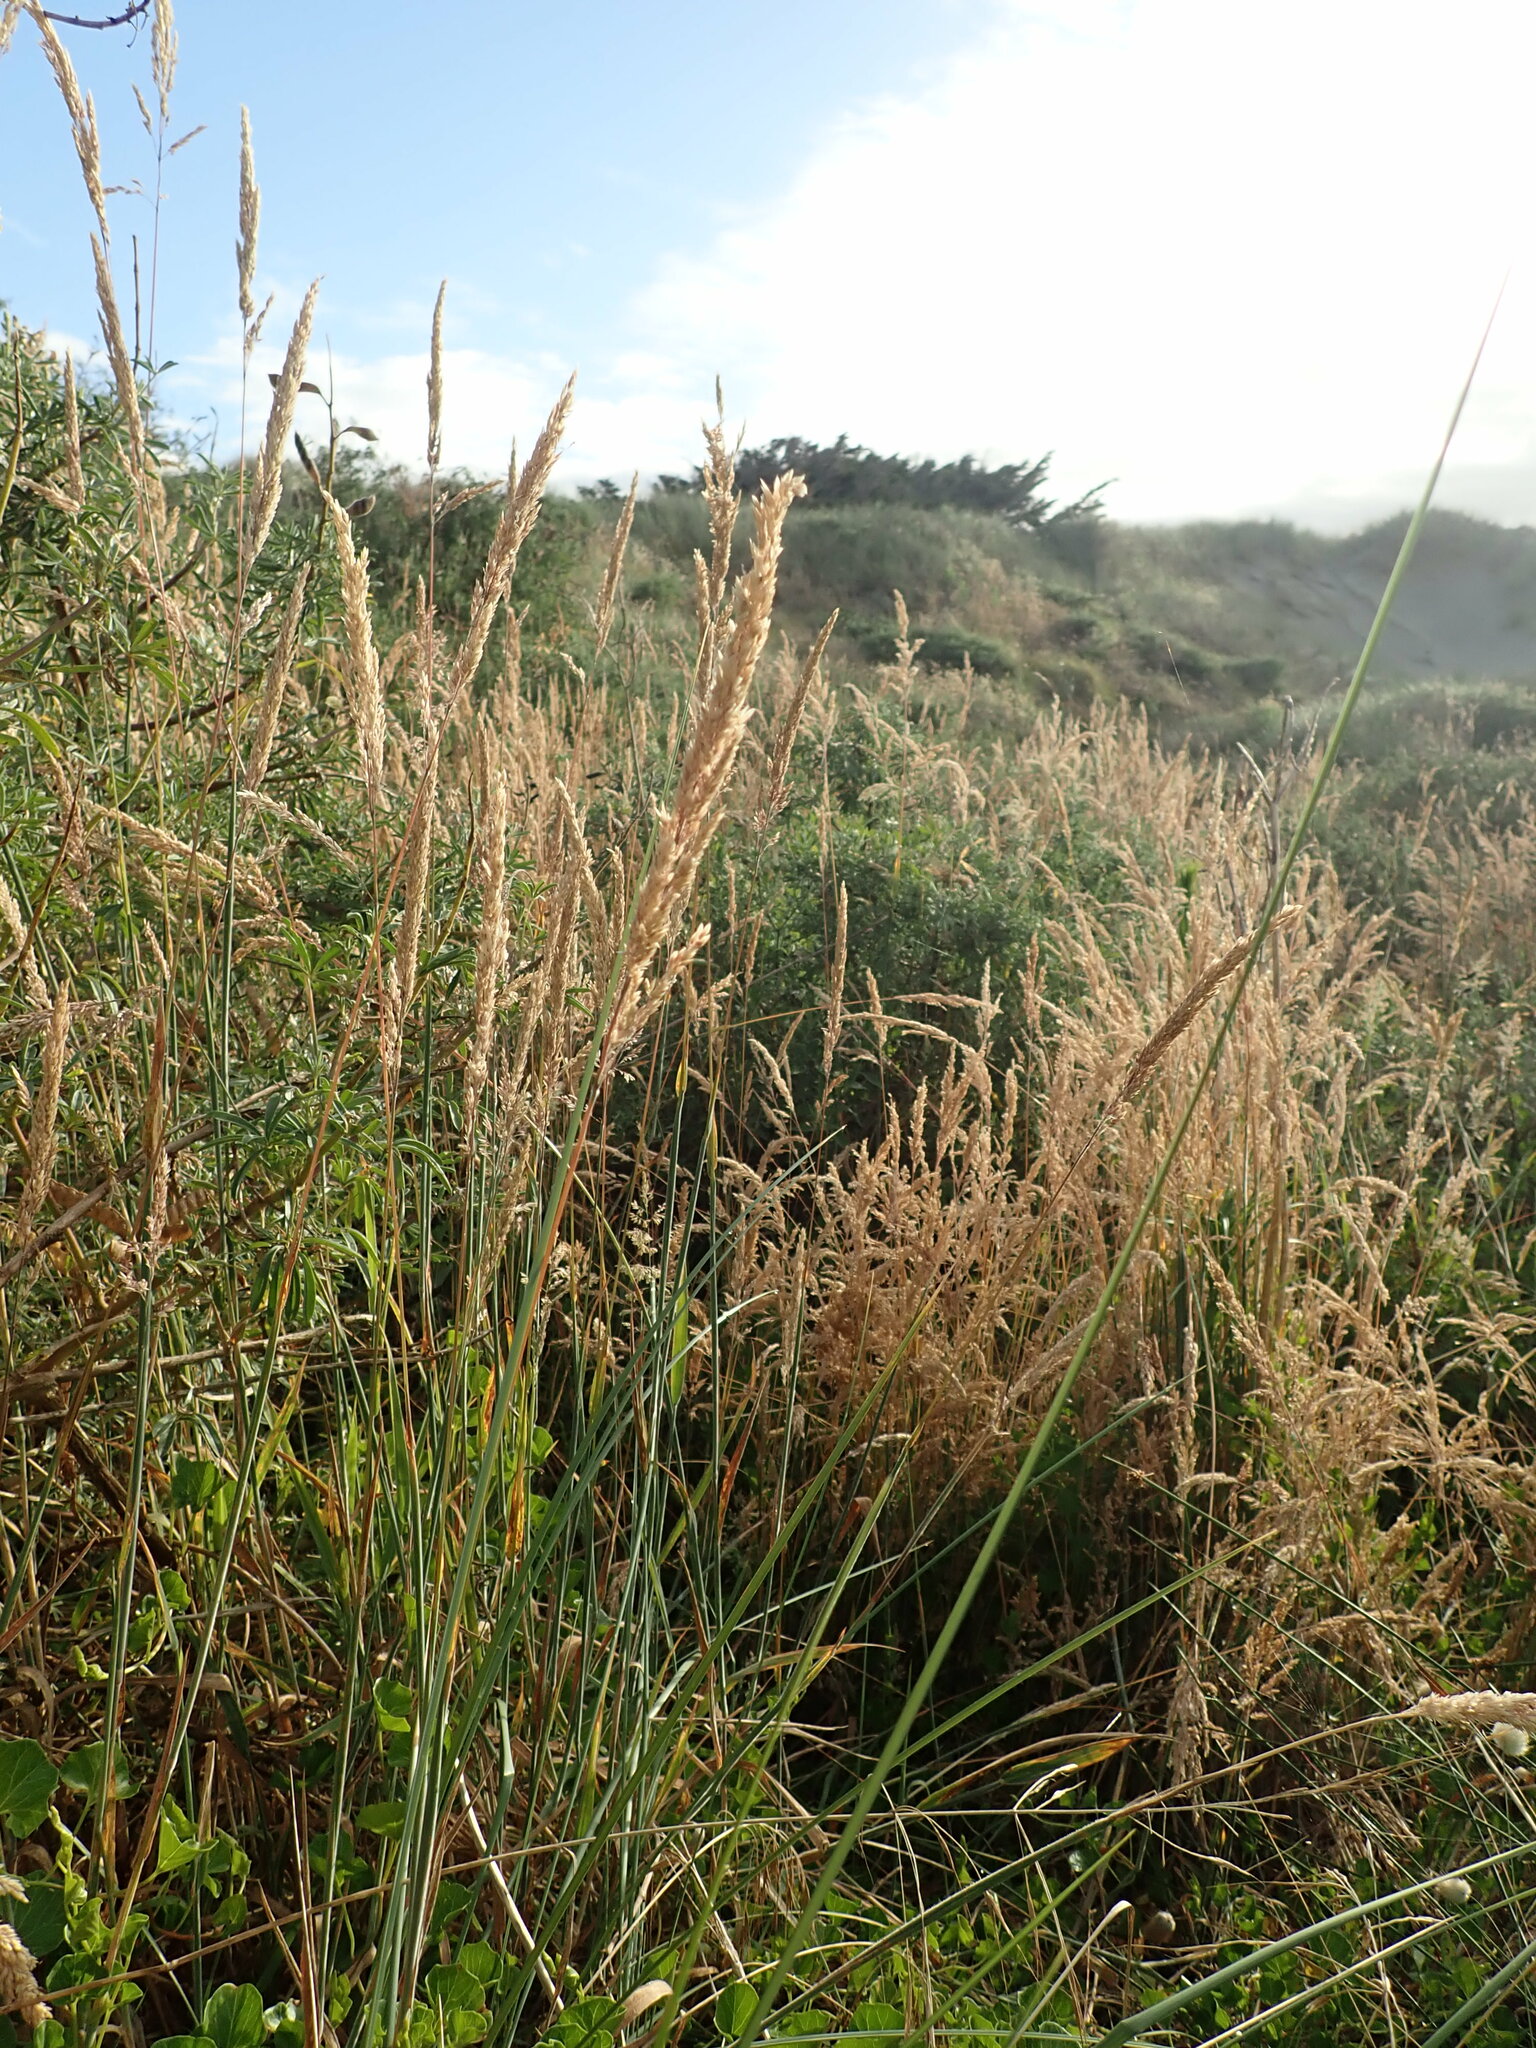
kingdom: Plantae
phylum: Tracheophyta
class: Liliopsida
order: Poales
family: Poaceae
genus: Holcus
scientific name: Holcus lanatus
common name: Yorkshire-fog
